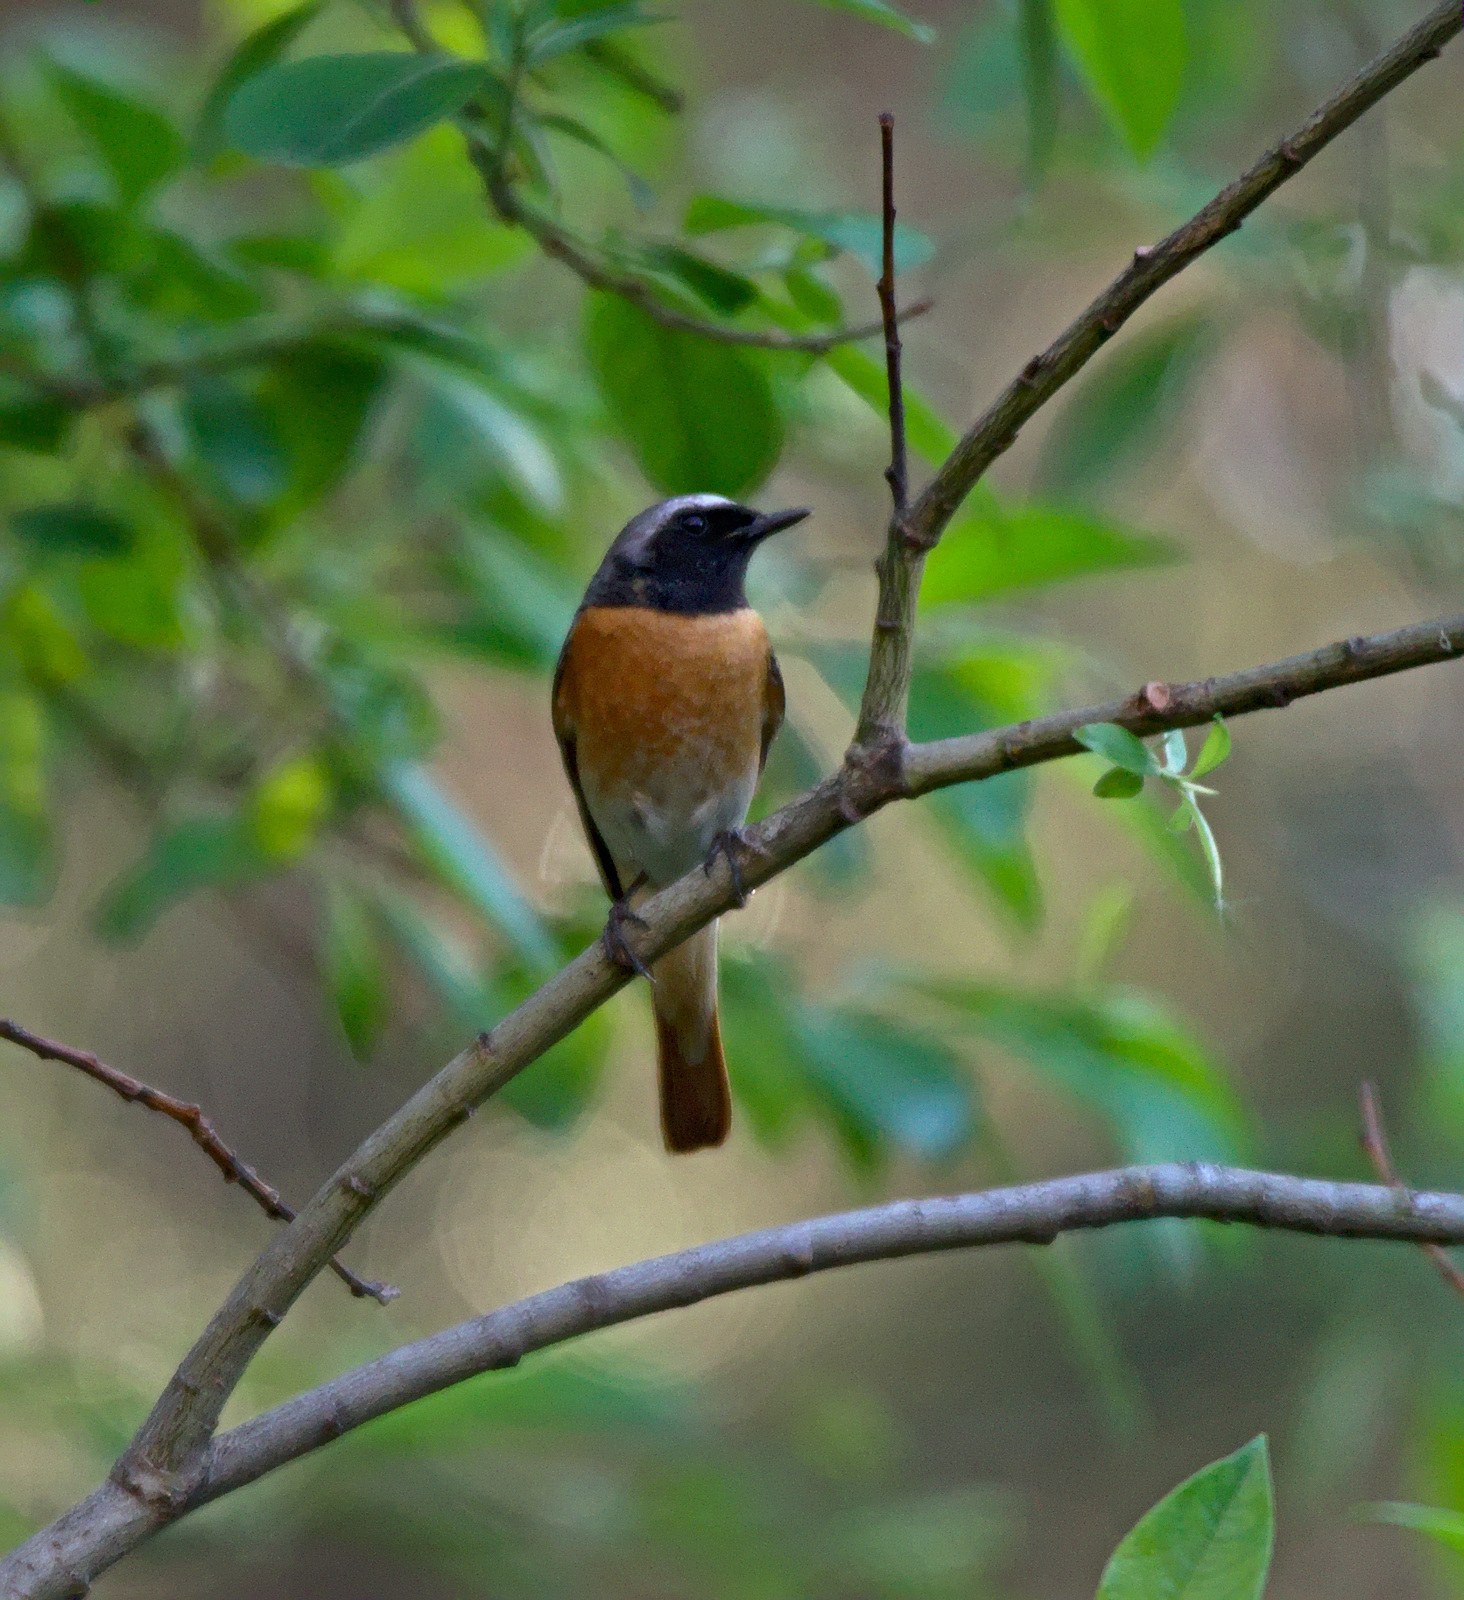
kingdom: Animalia
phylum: Chordata
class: Aves
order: Passeriformes
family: Muscicapidae
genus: Phoenicurus
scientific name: Phoenicurus phoenicurus
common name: Common redstart
